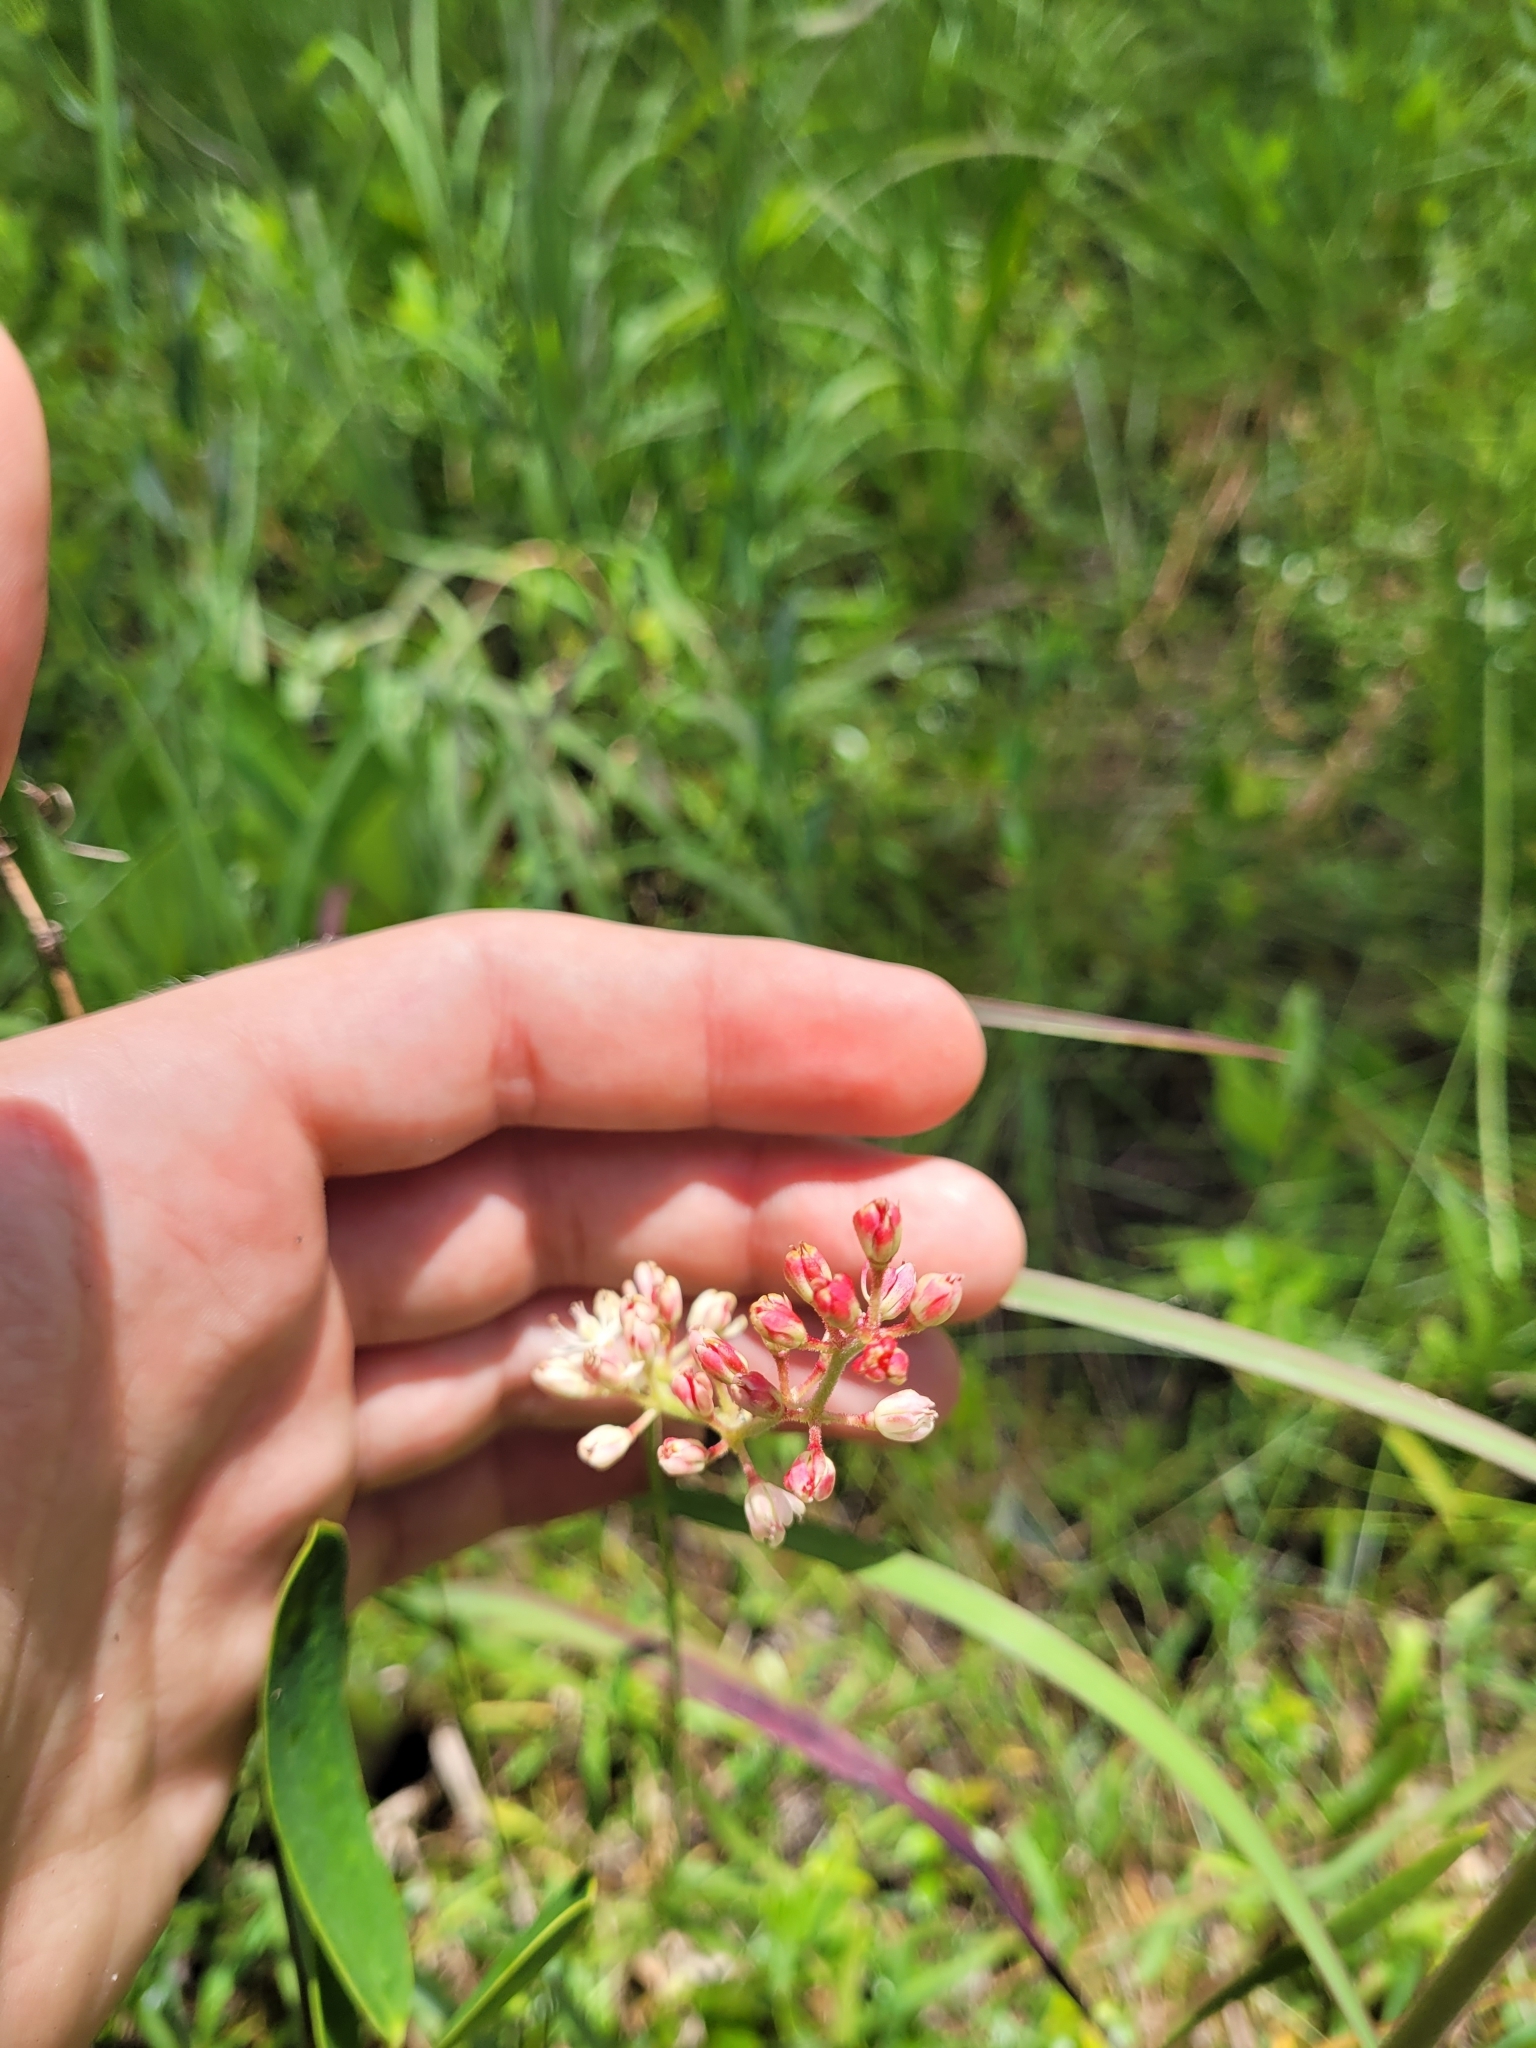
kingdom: Plantae
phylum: Tracheophyta
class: Liliopsida
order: Alismatales
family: Tofieldiaceae
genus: Triantha
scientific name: Triantha racemosa
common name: Coastal false asphodel
